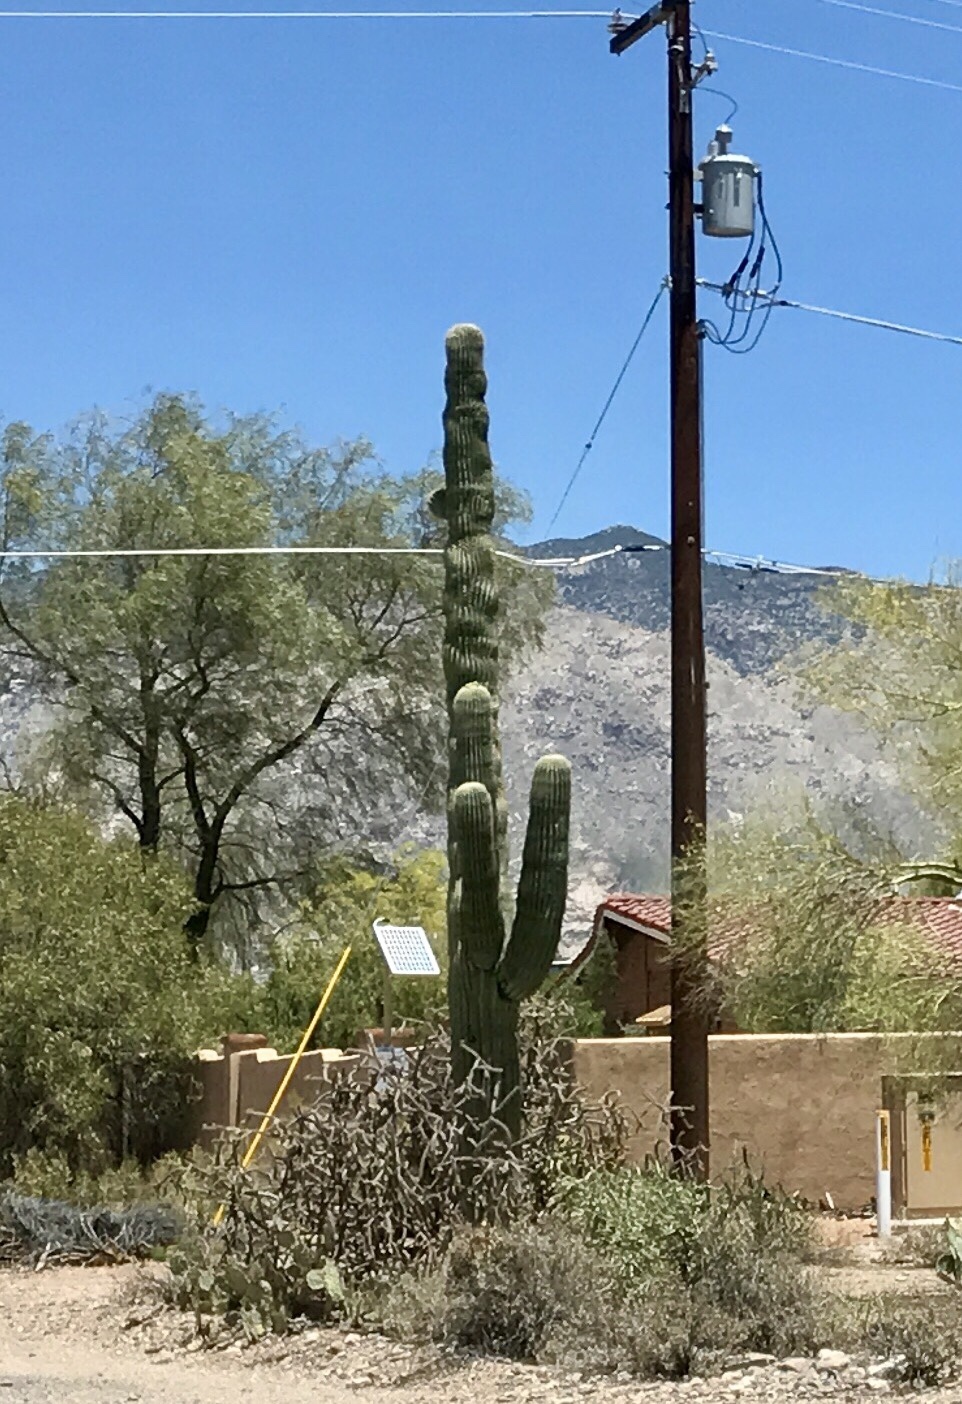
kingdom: Plantae
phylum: Tracheophyta
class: Magnoliopsida
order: Caryophyllales
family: Cactaceae
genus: Carnegiea
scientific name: Carnegiea gigantea
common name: Saguaro
